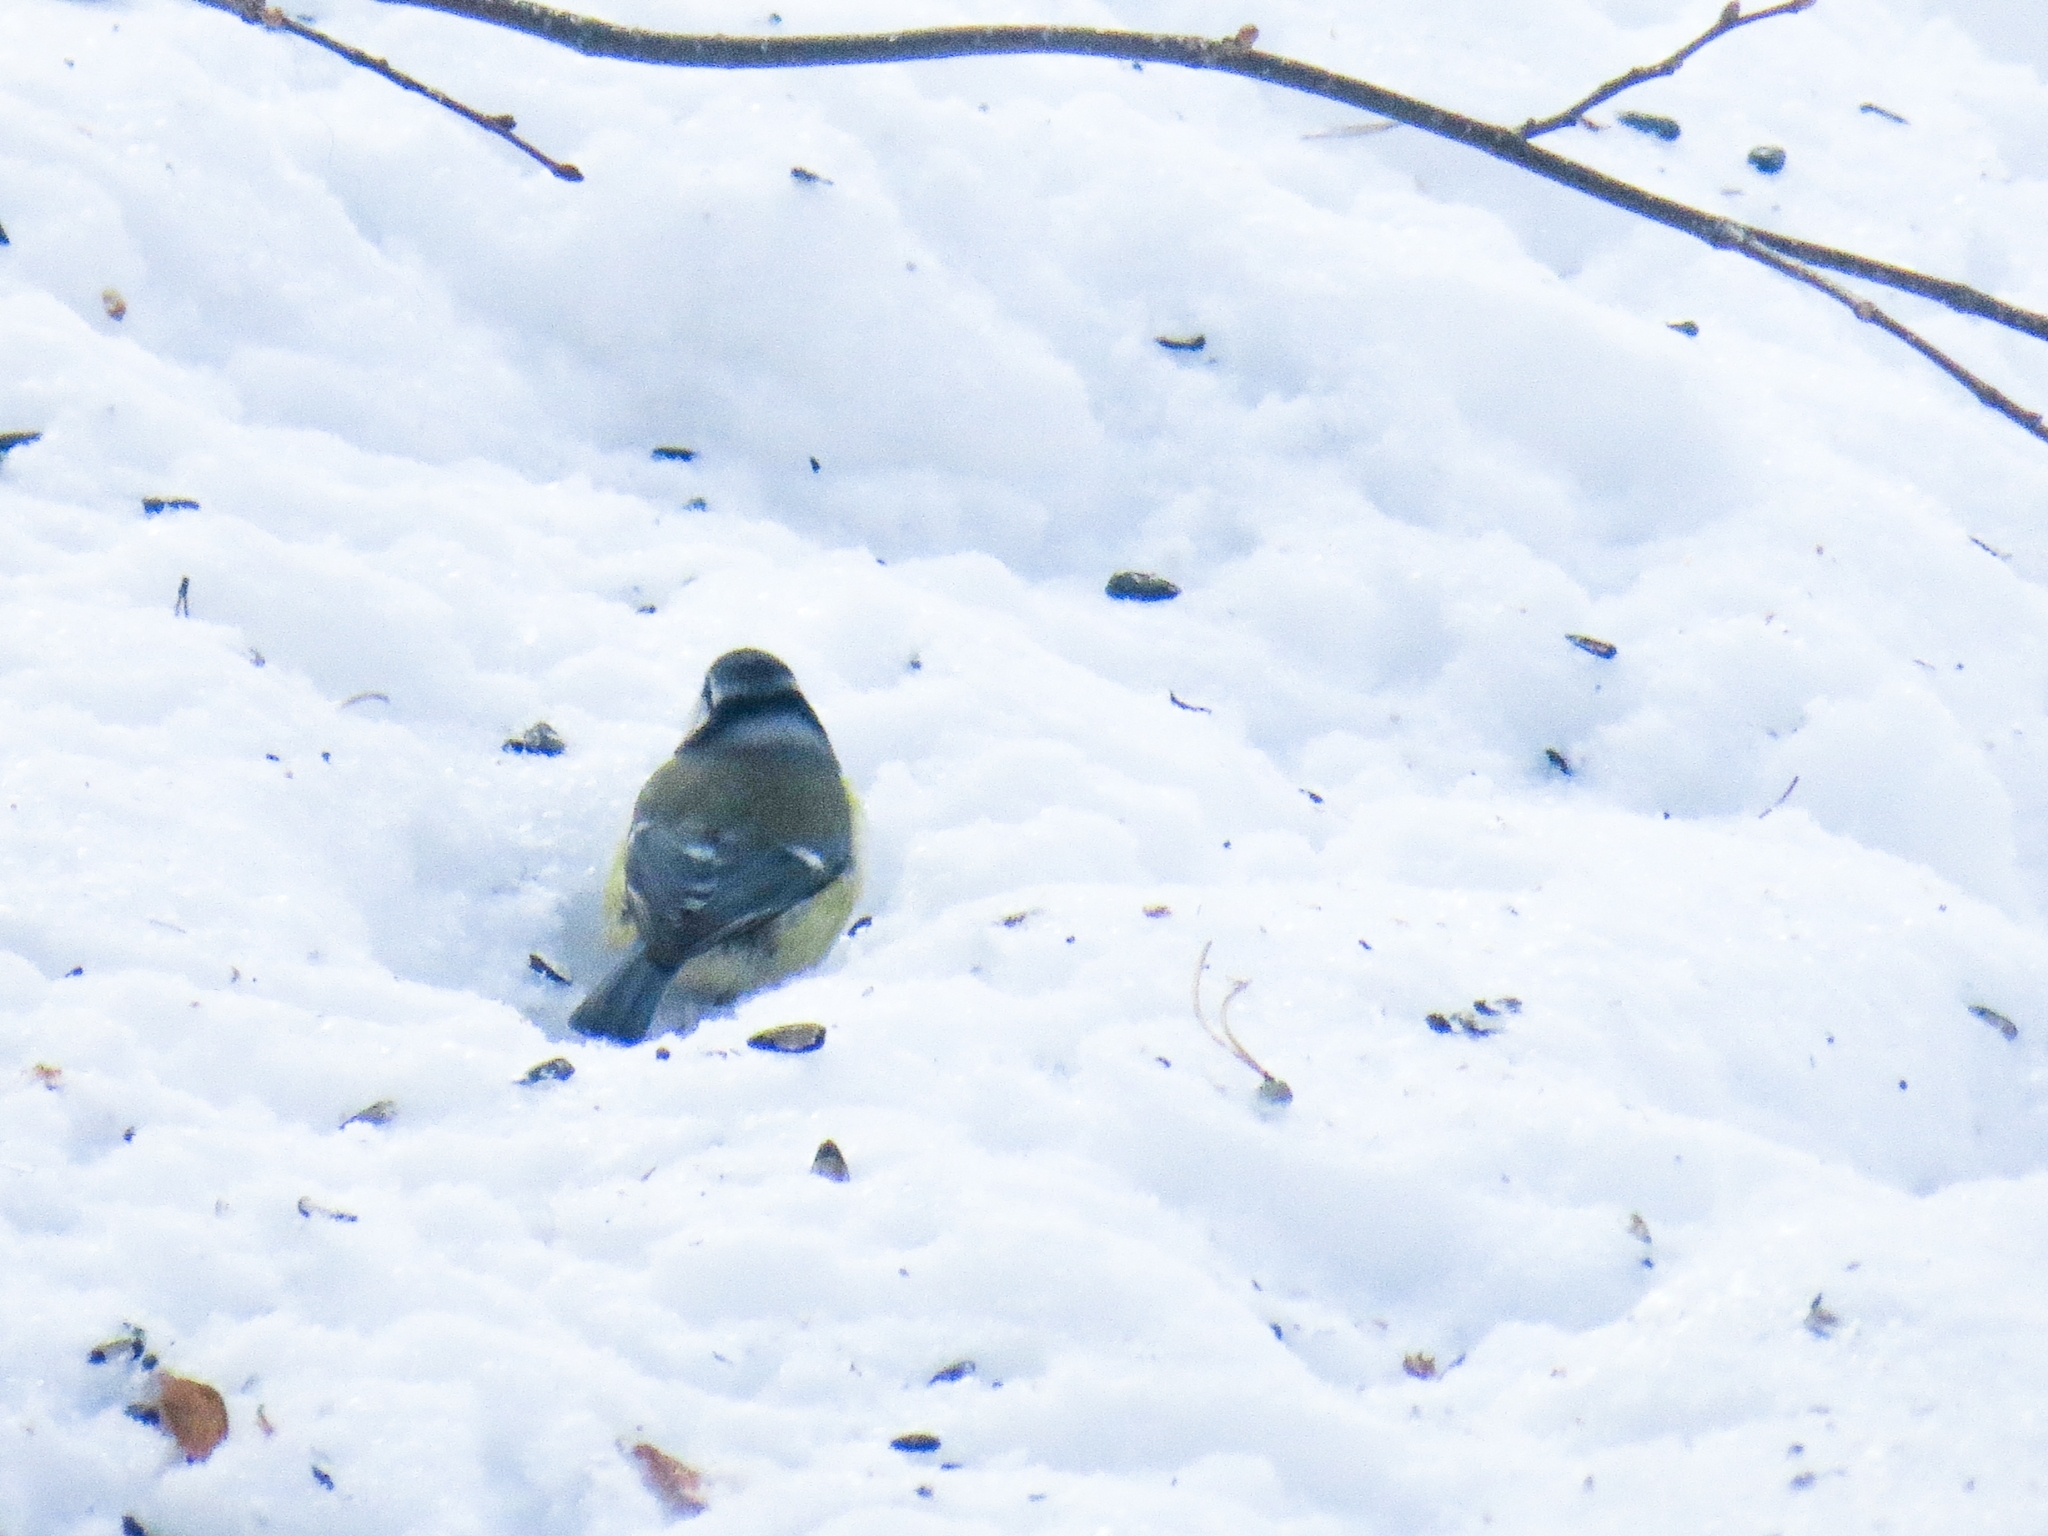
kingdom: Animalia
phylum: Chordata
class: Aves
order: Passeriformes
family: Paridae
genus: Cyanistes
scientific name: Cyanistes caeruleus
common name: Eurasian blue tit
